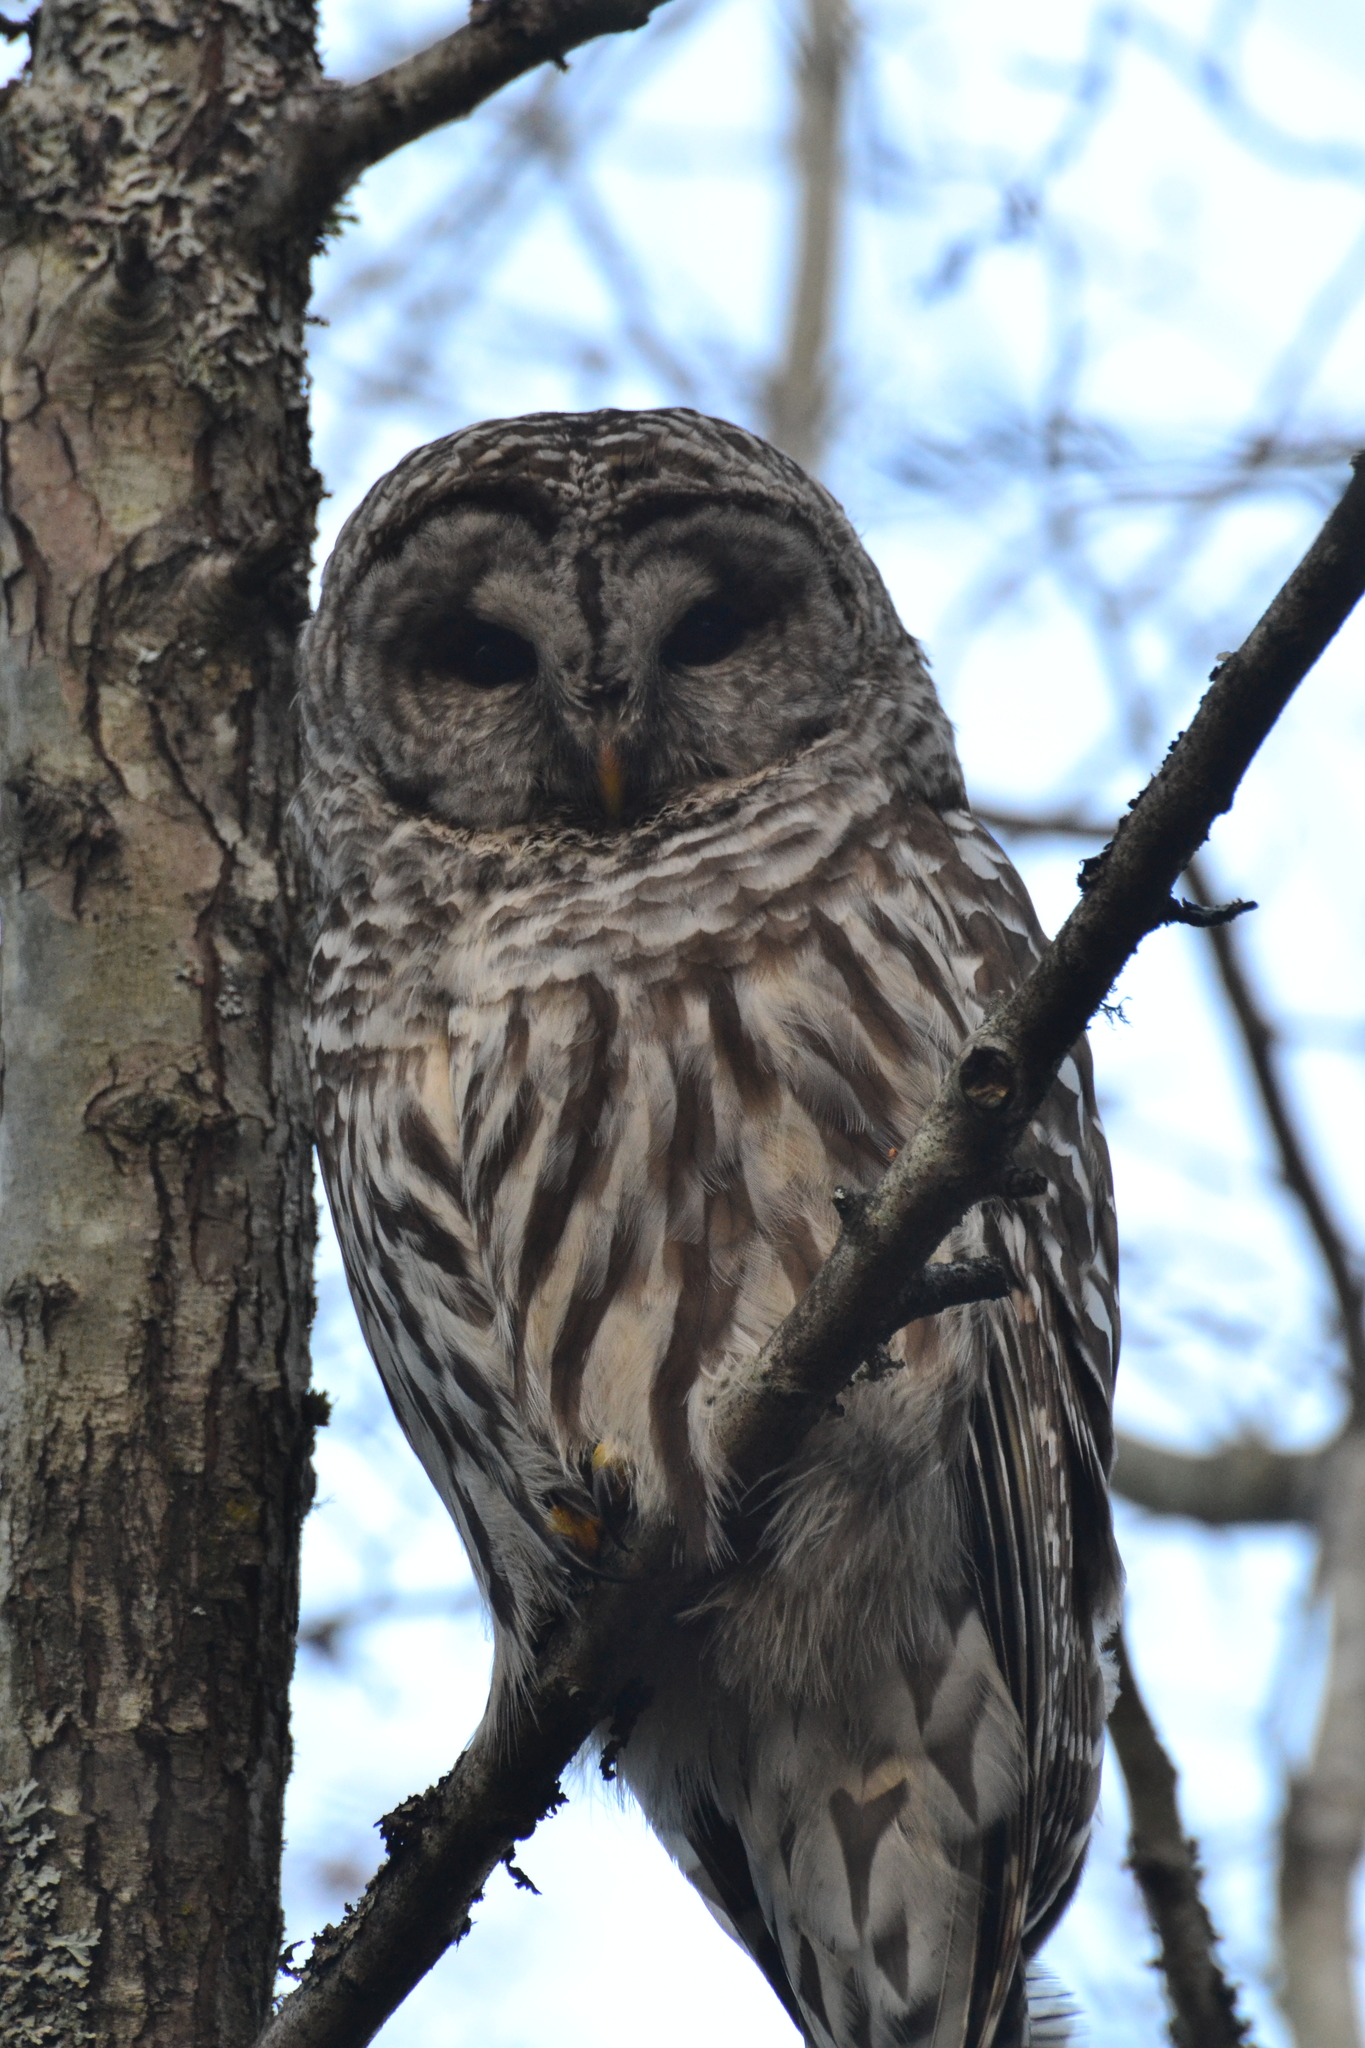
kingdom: Animalia
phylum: Chordata
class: Aves
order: Strigiformes
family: Strigidae
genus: Strix
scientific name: Strix varia
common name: Barred owl
